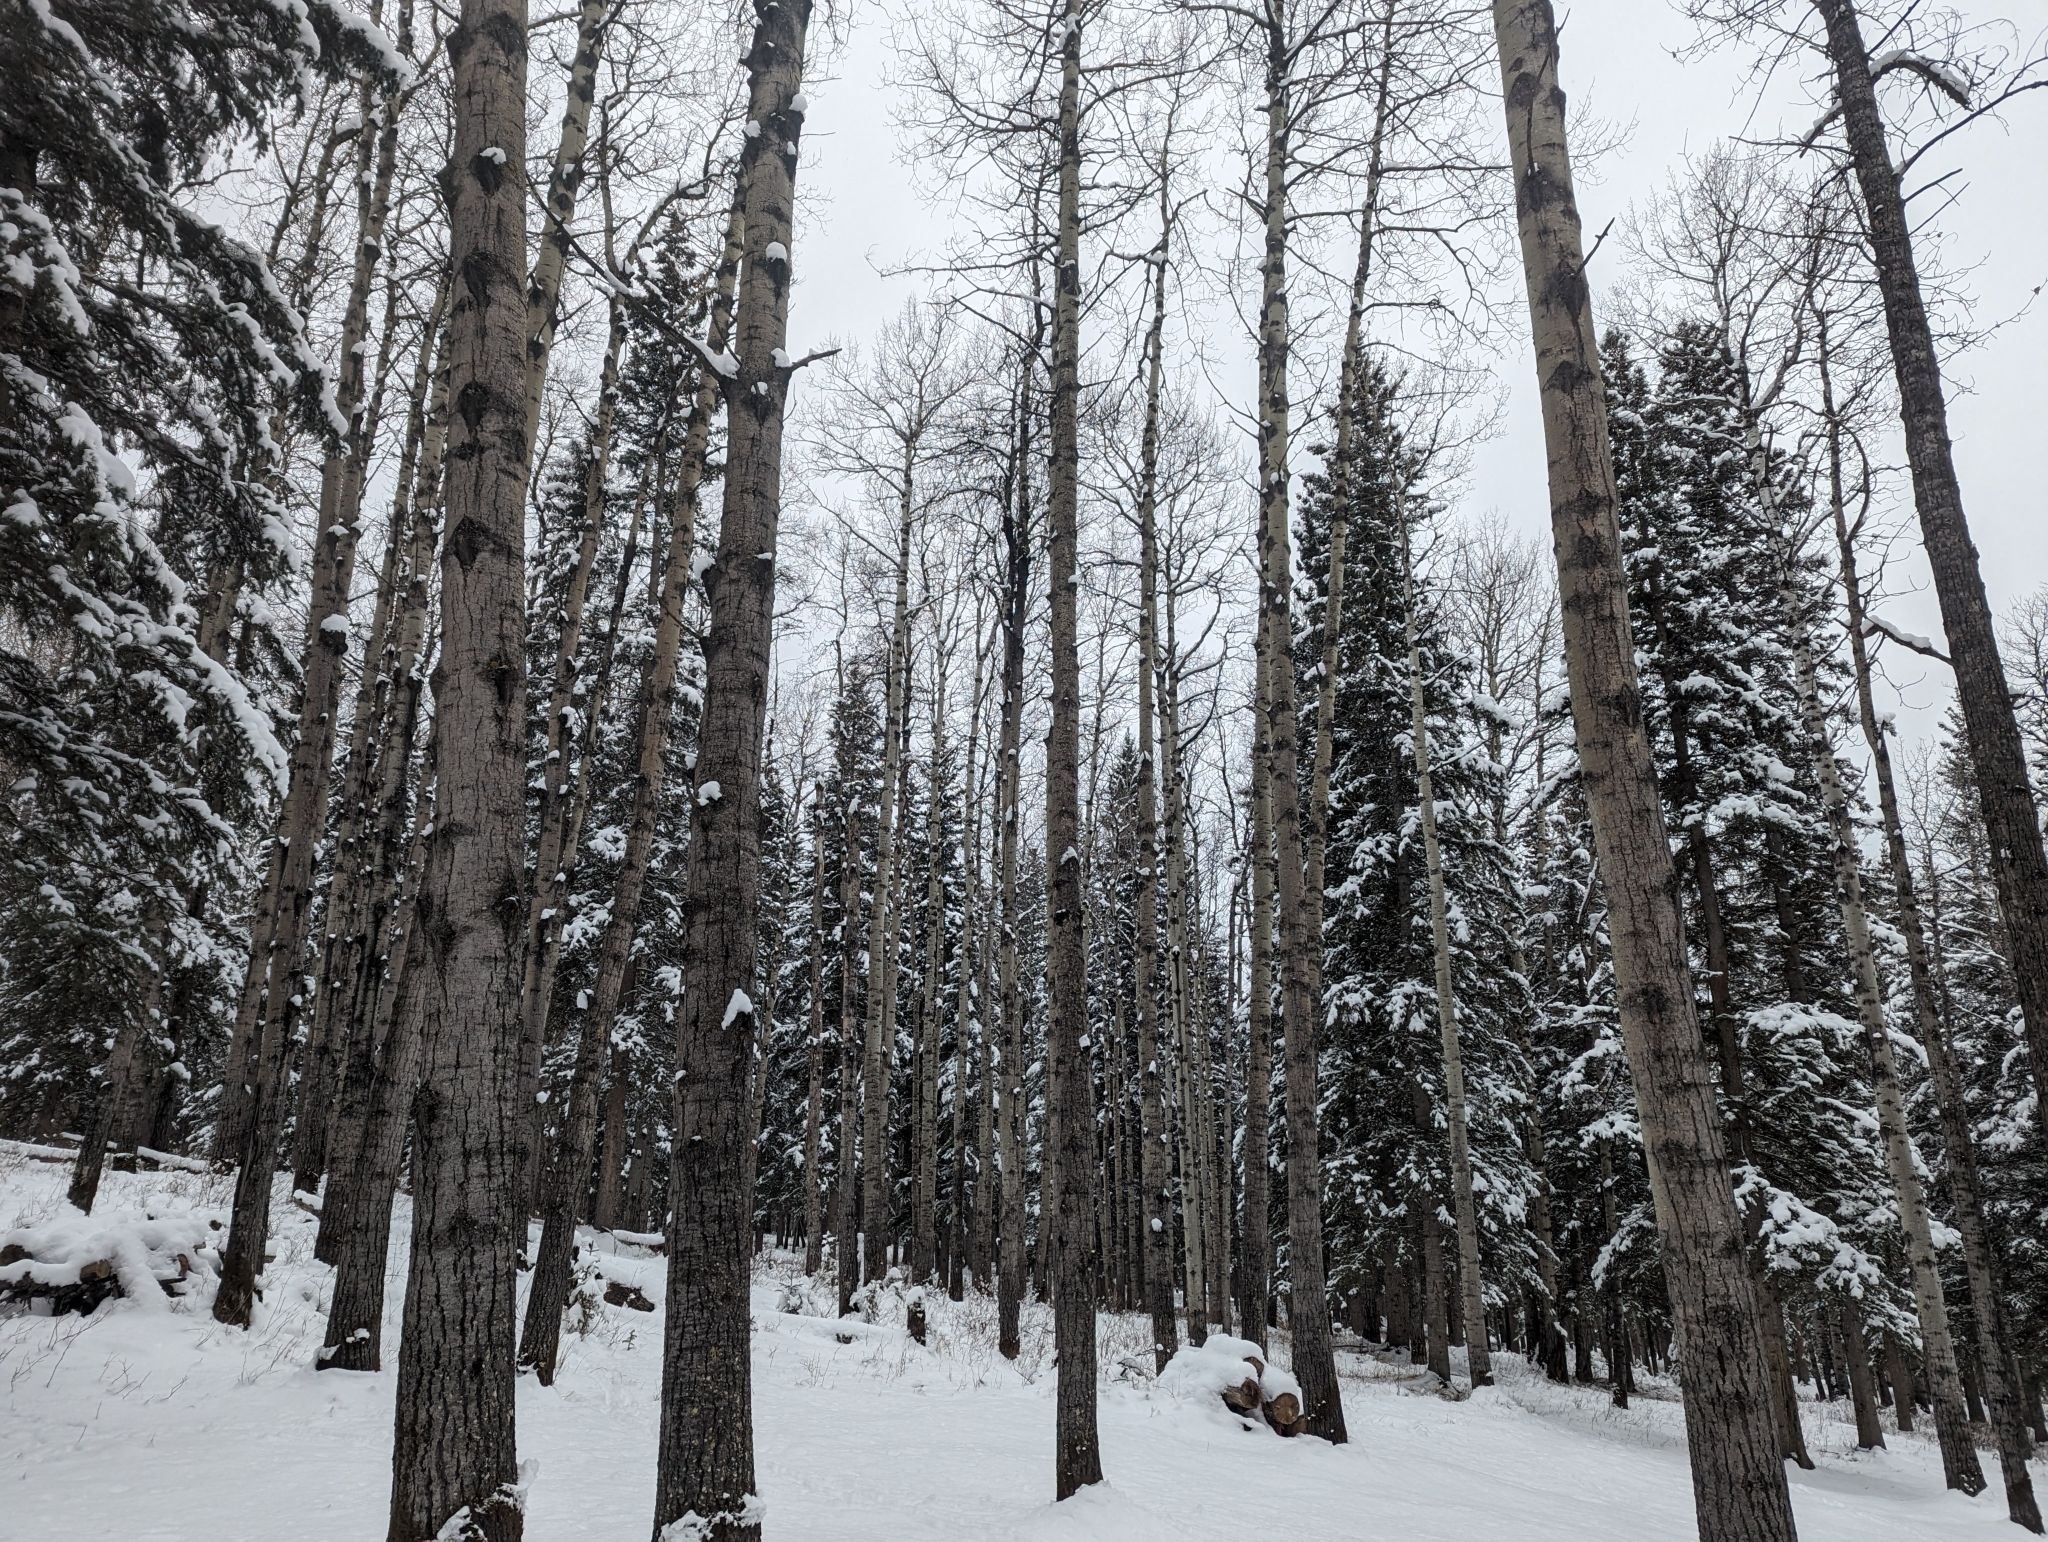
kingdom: Plantae
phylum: Tracheophyta
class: Magnoliopsida
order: Malpighiales
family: Salicaceae
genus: Populus
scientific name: Populus tremuloides
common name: Quaking aspen
